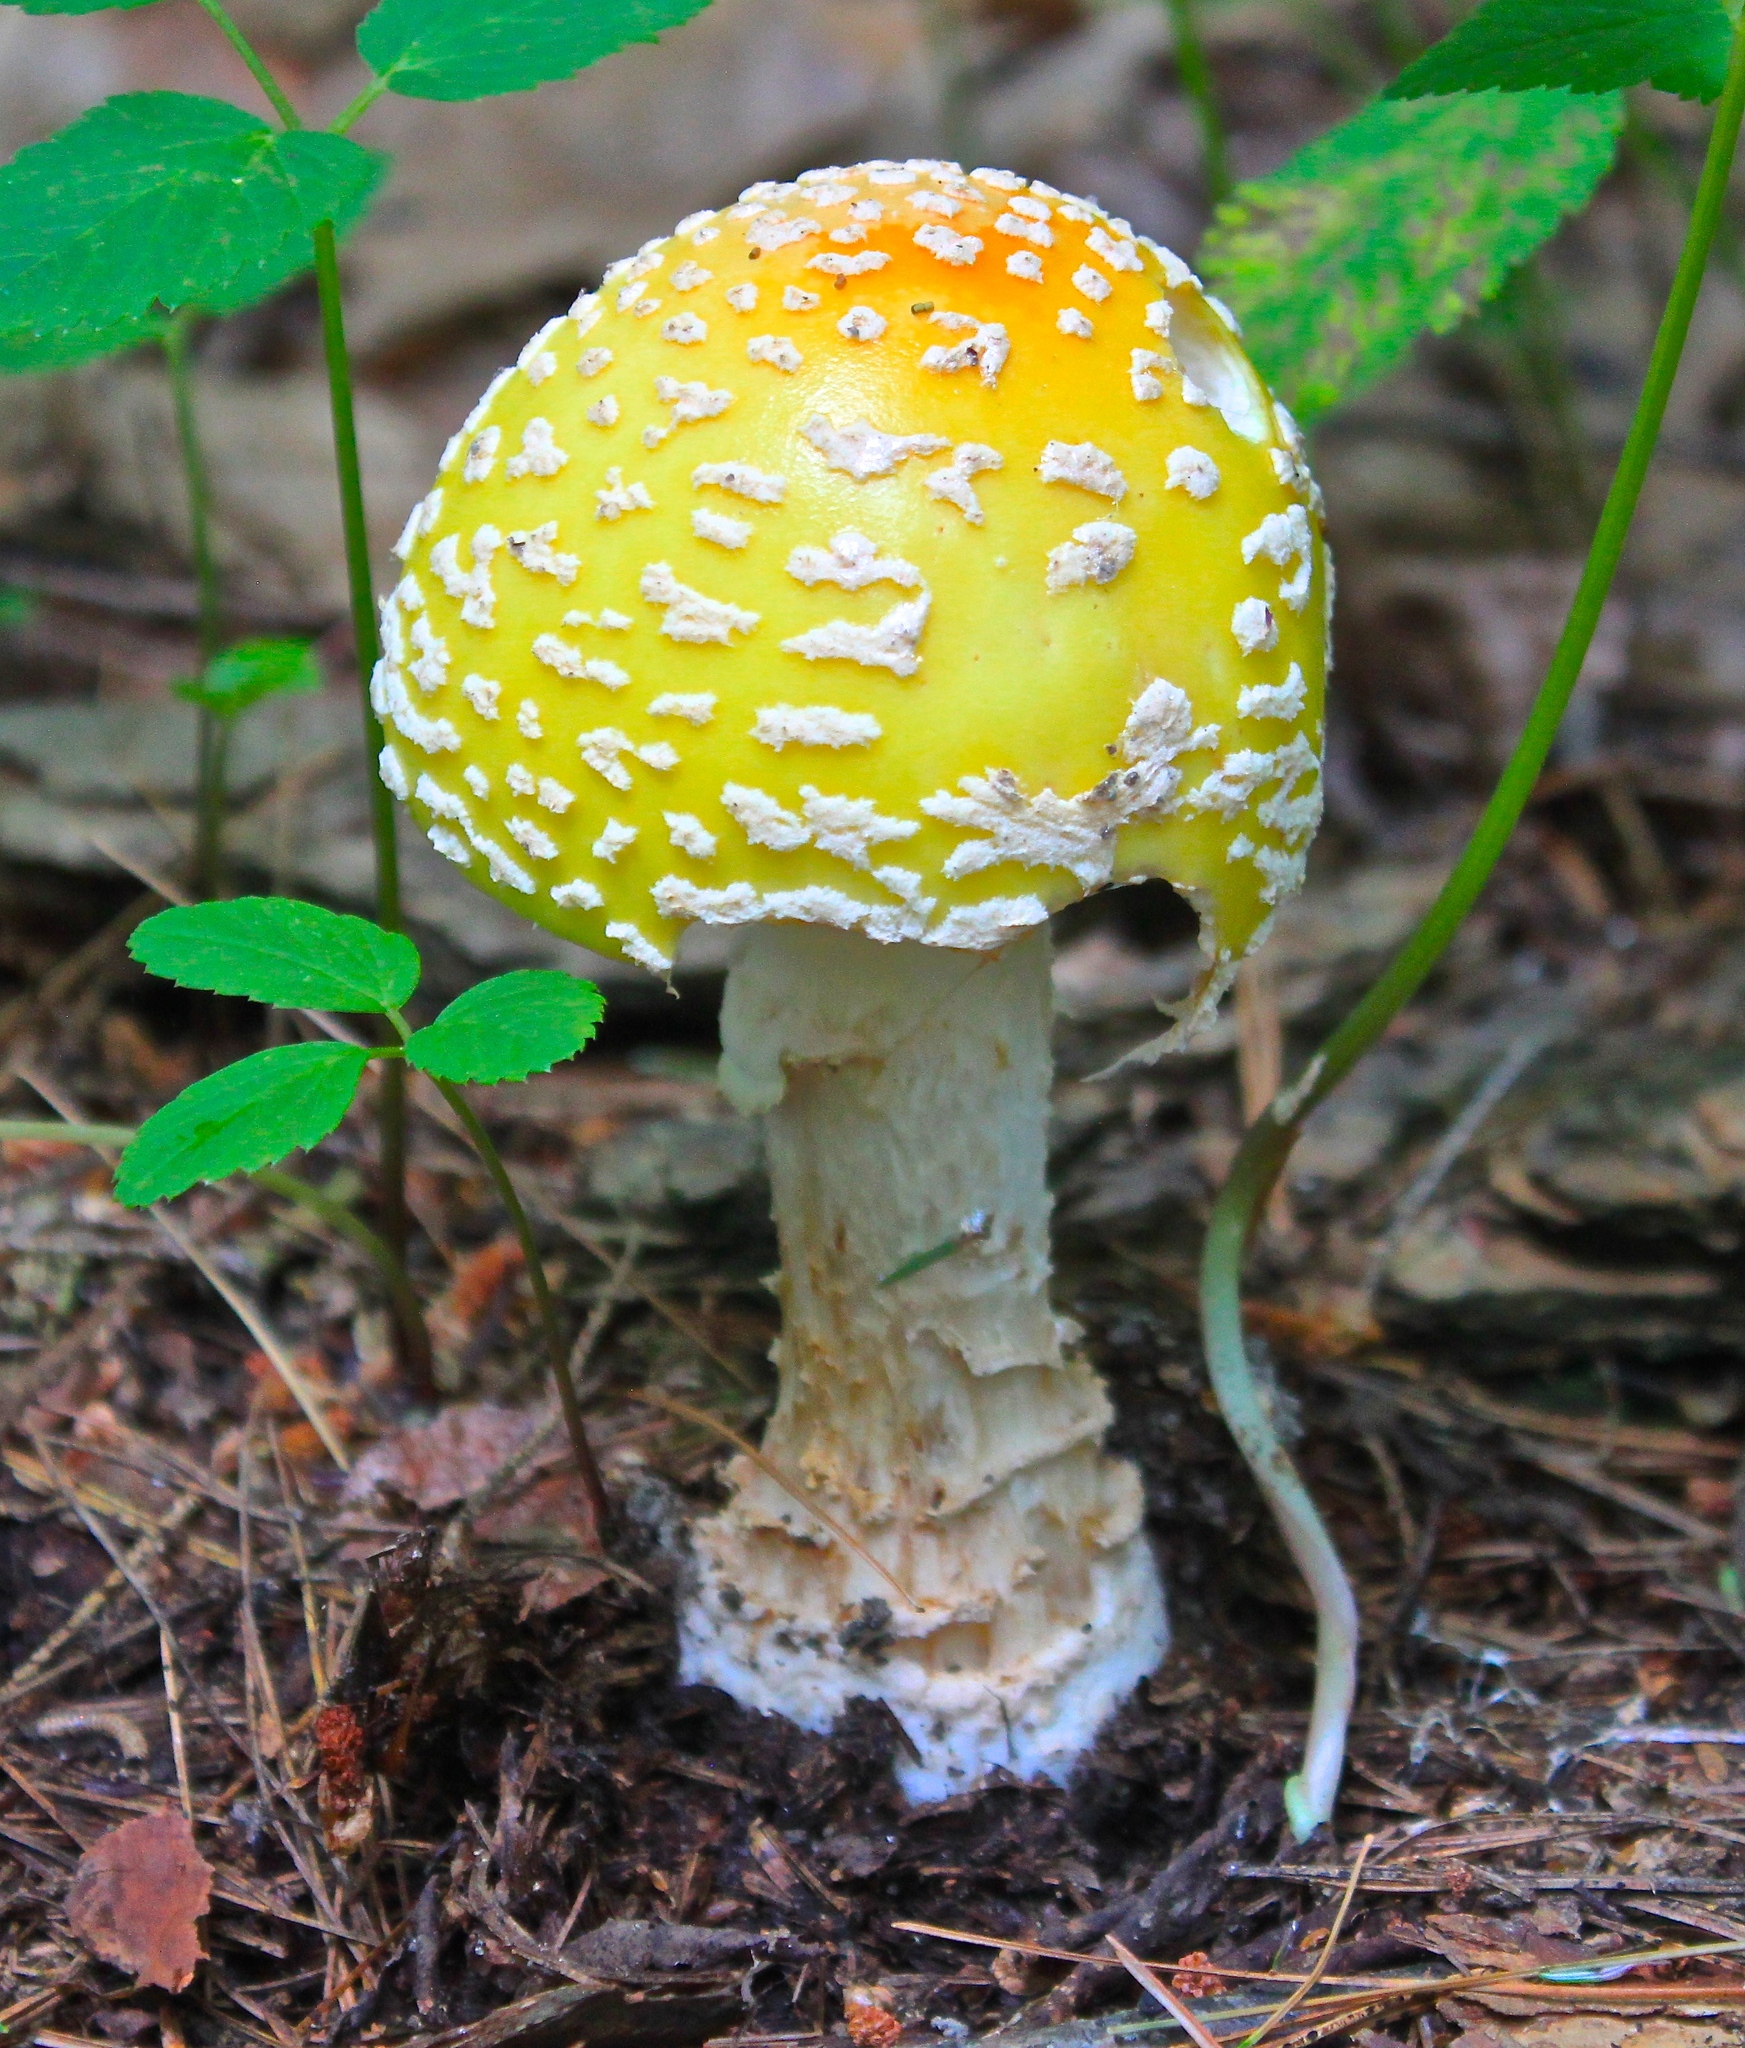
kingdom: Fungi
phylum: Basidiomycota
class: Agaricomycetes
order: Agaricales
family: Amanitaceae
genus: Amanita
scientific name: Amanita muscaria
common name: Fly agaric
